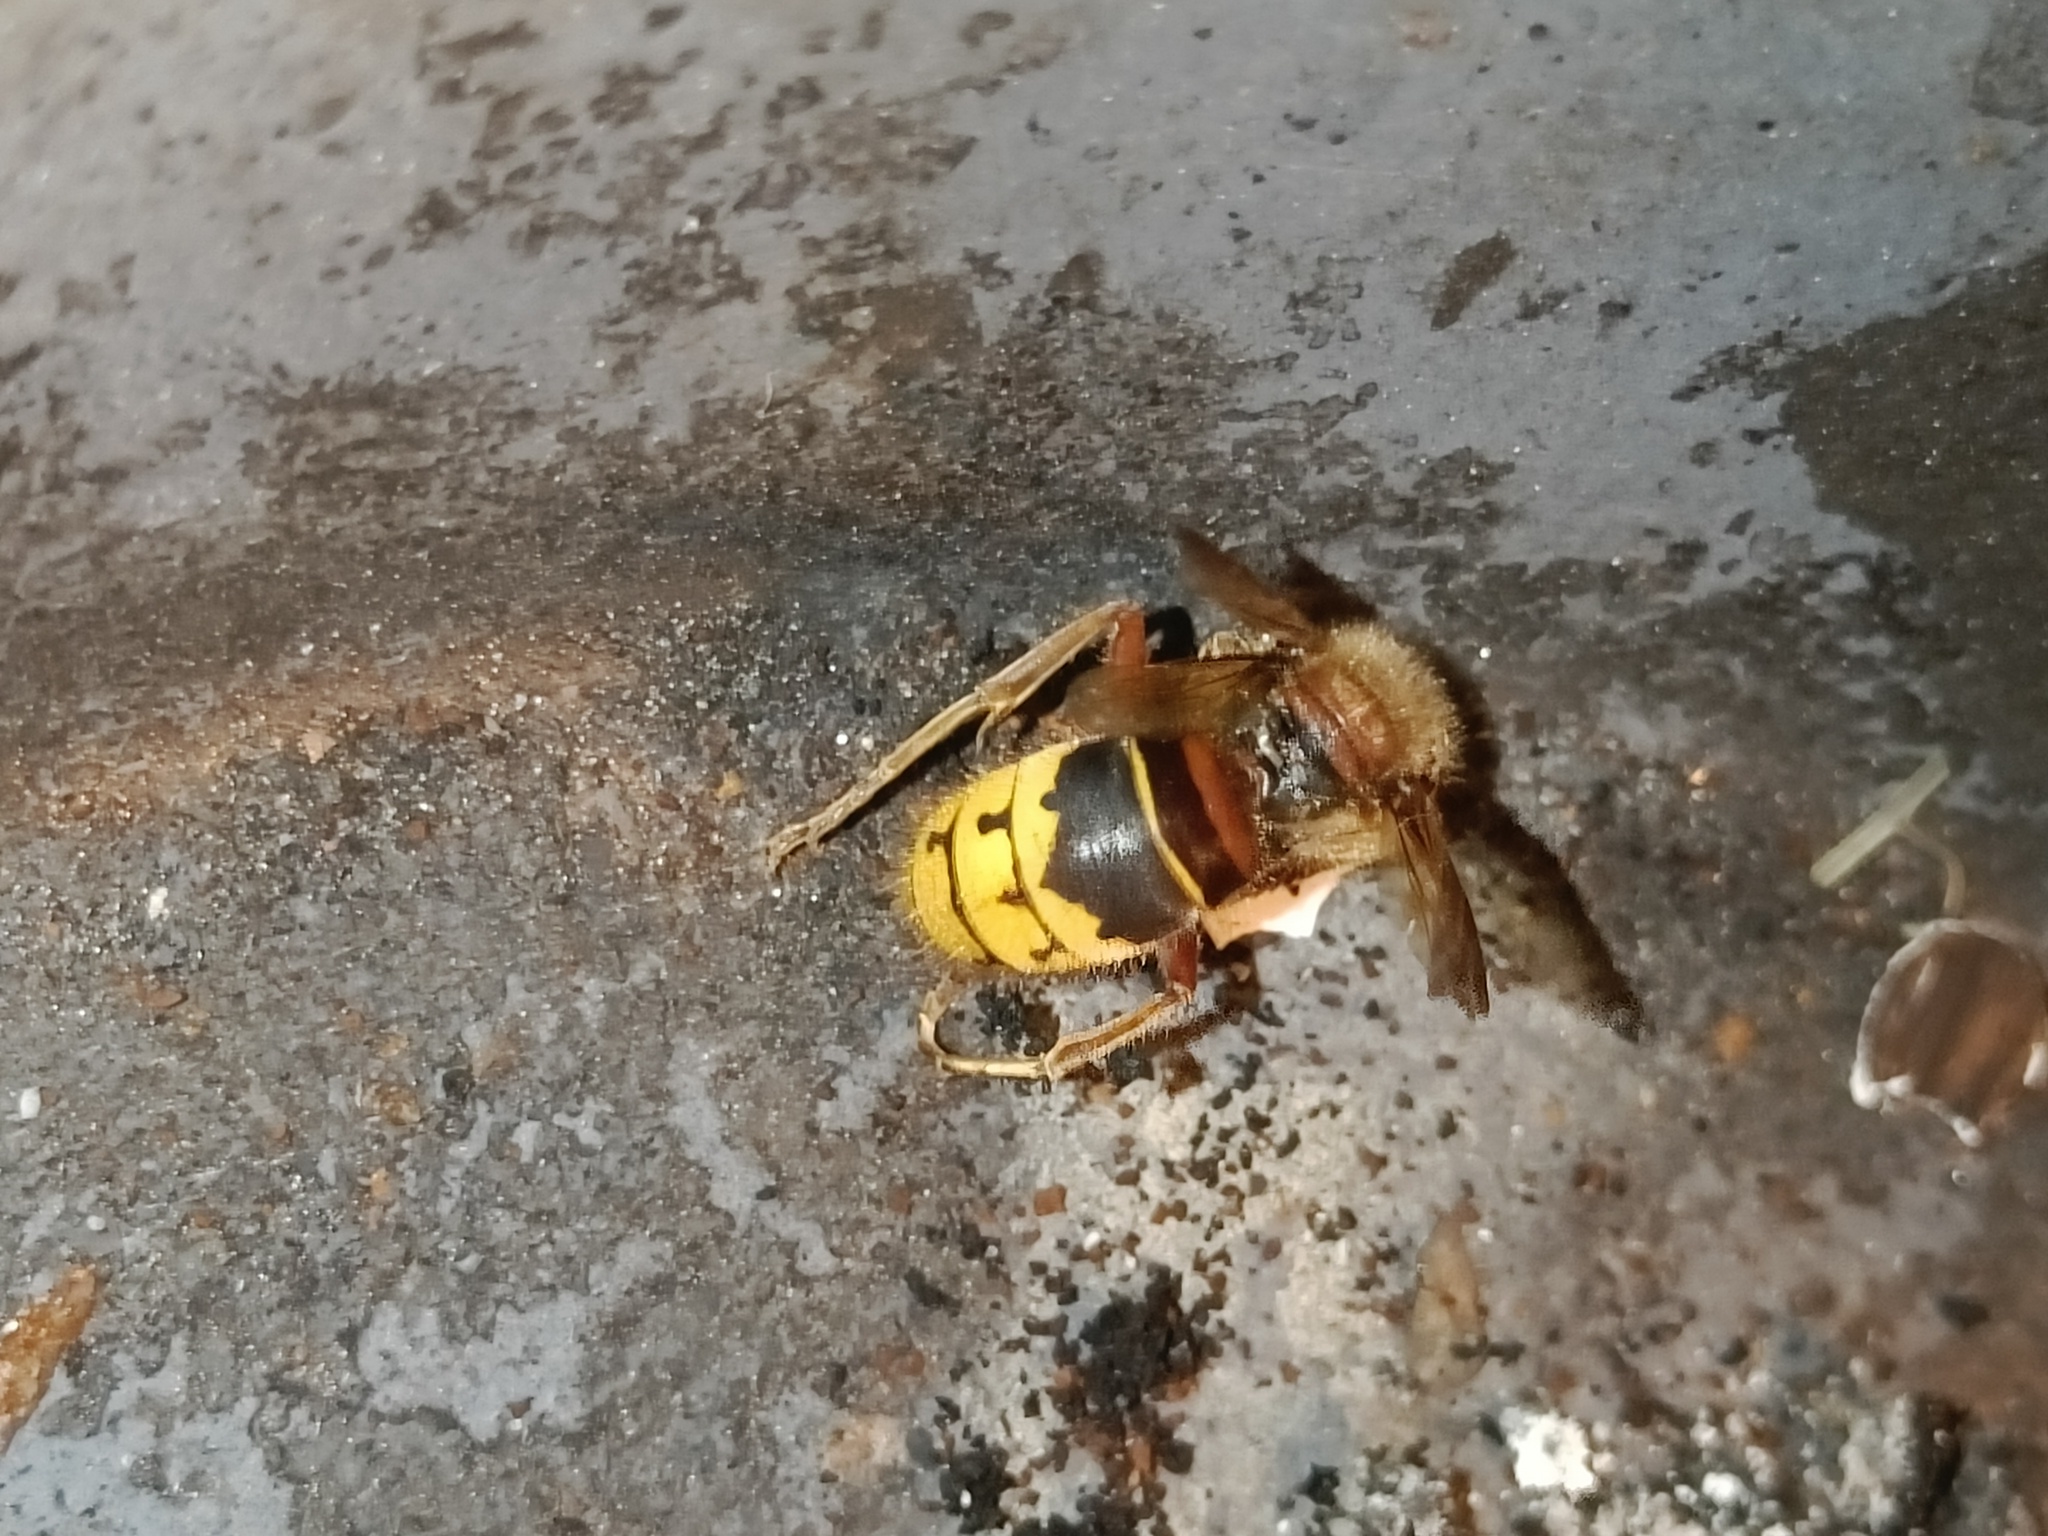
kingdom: Animalia
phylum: Arthropoda
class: Insecta
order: Hymenoptera
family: Vespidae
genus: Vespa
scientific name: Vespa crabro
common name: Hornet
